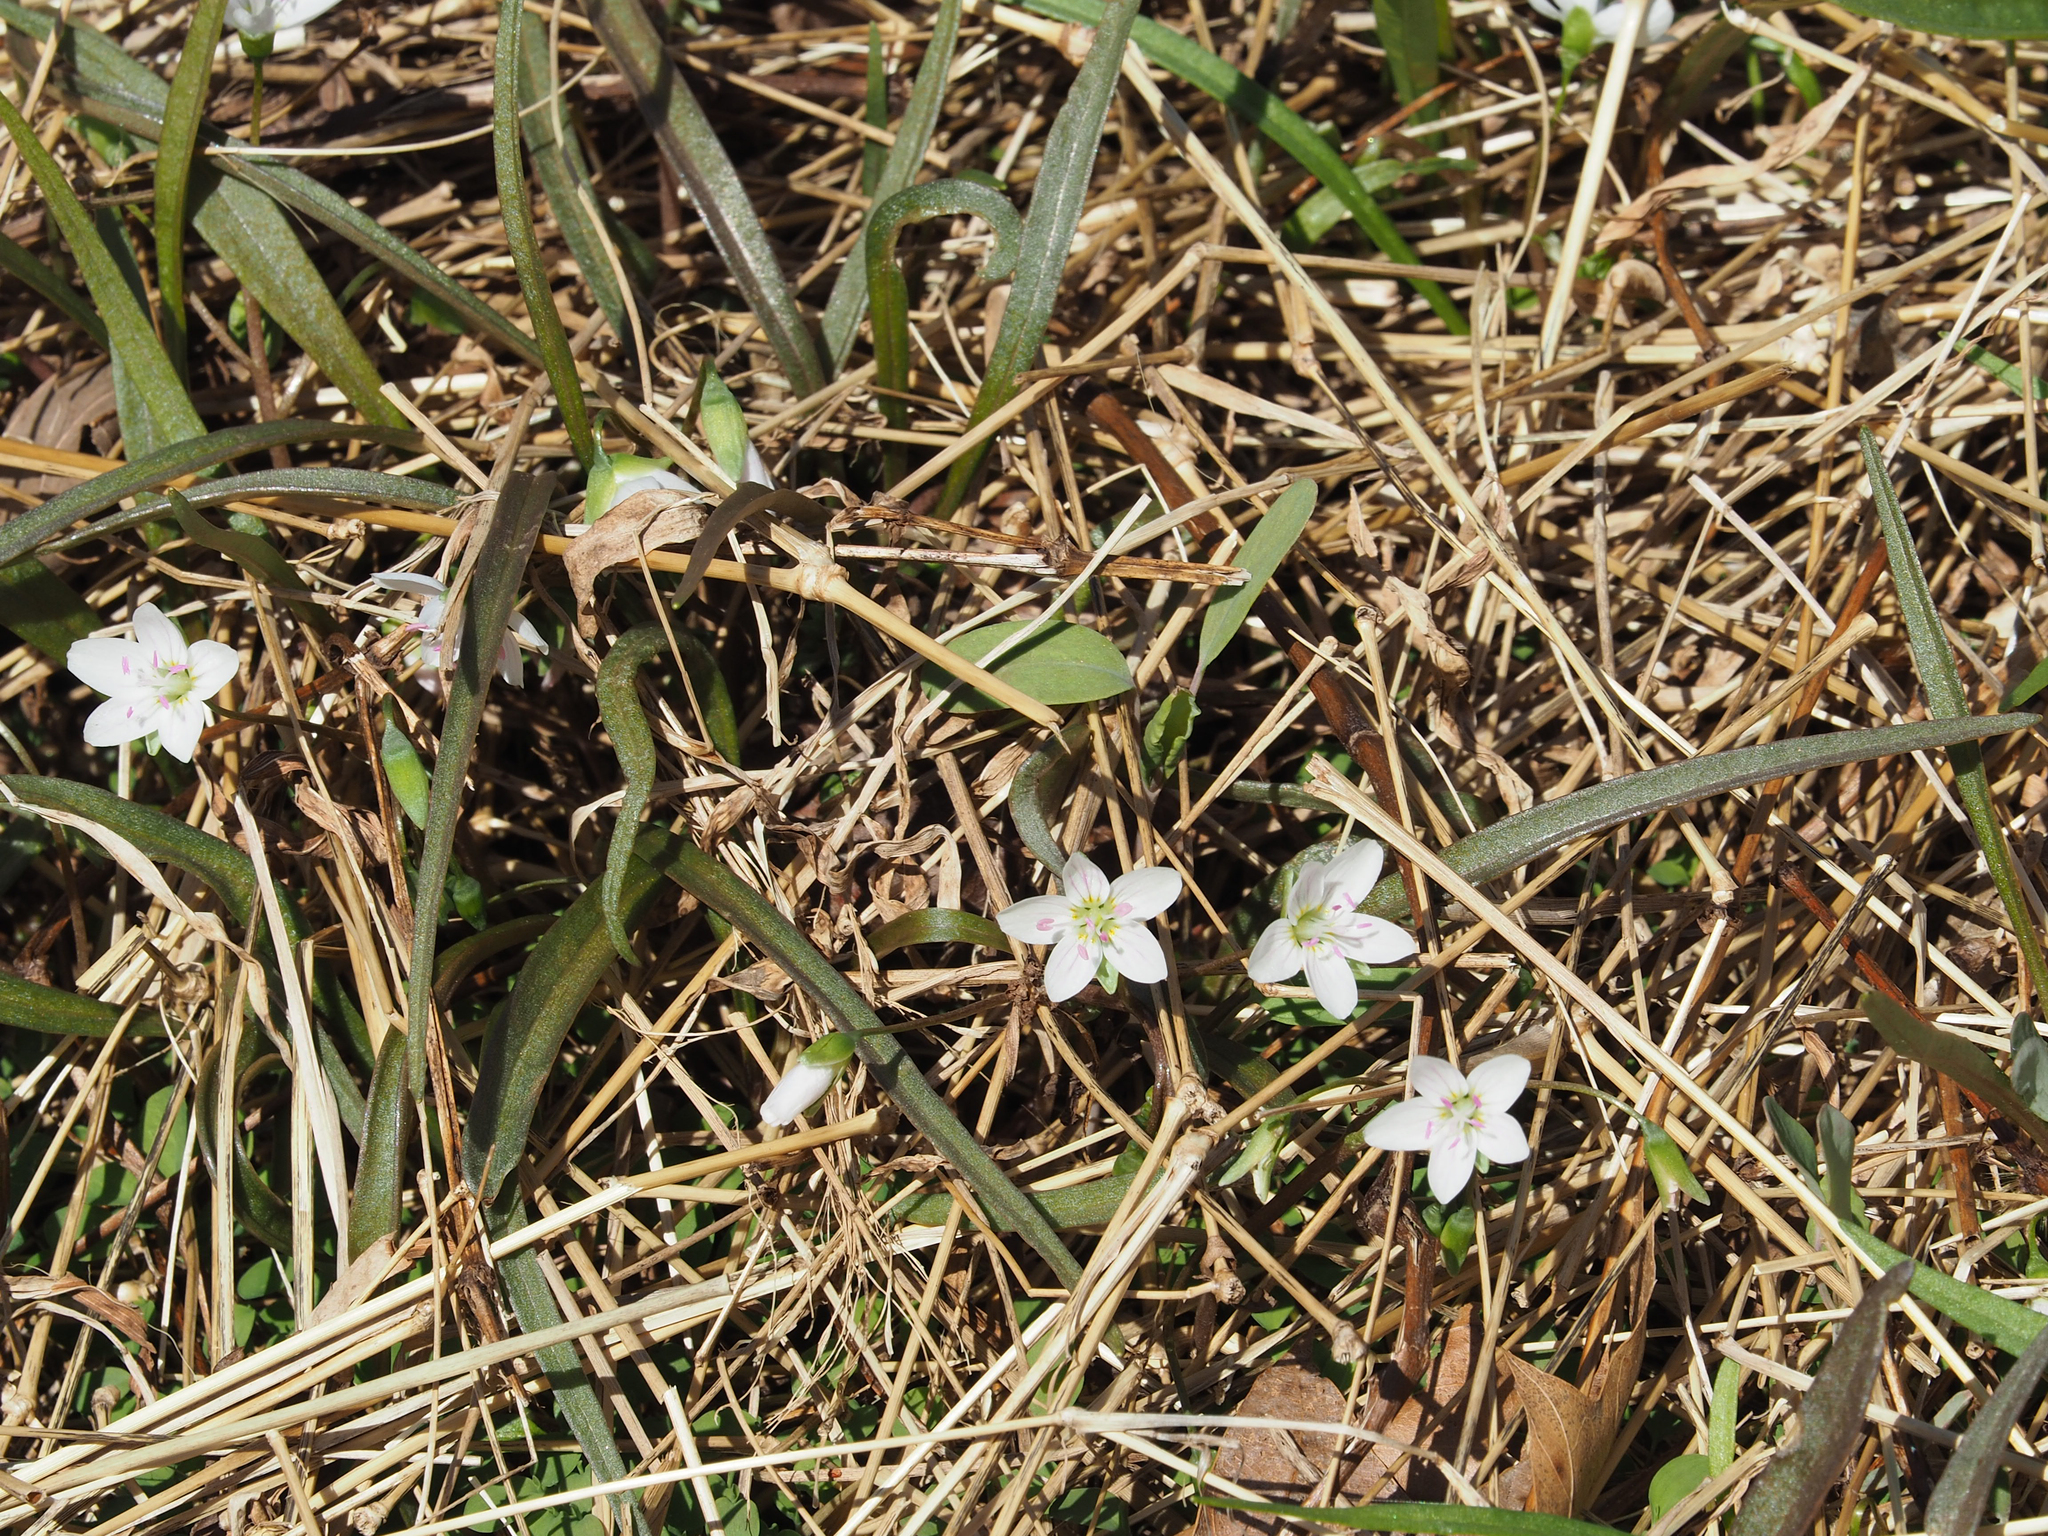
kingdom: Plantae
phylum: Tracheophyta
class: Magnoliopsida
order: Caryophyllales
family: Montiaceae
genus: Claytonia
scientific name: Claytonia virginica
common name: Virginia springbeauty
